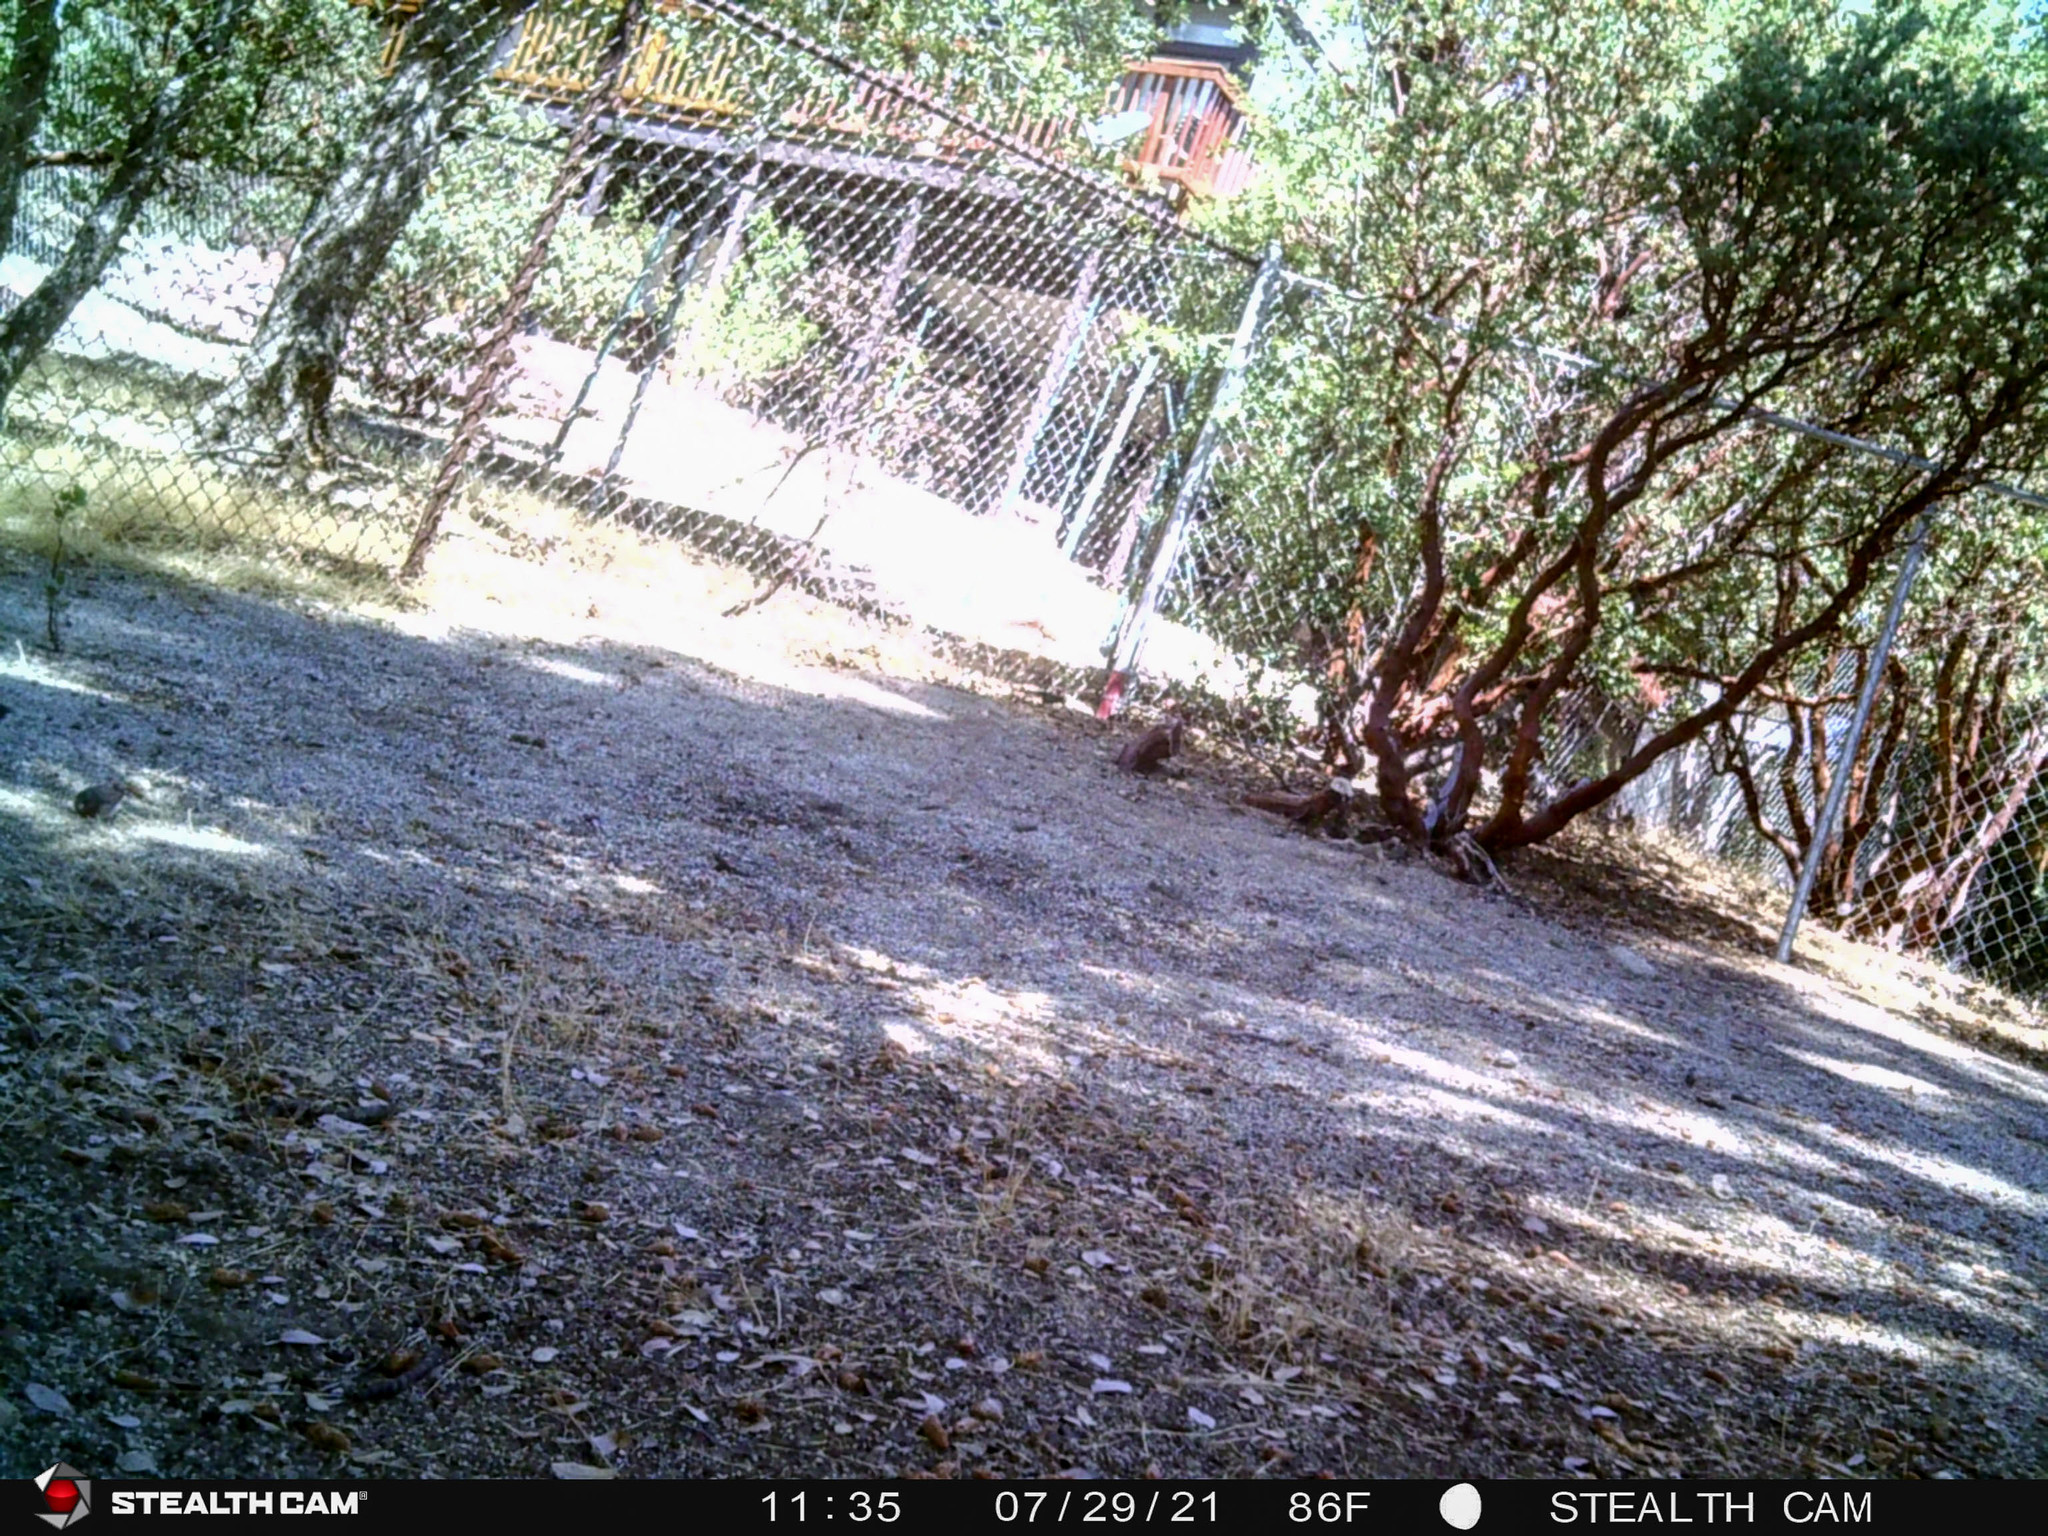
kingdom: Animalia
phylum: Chordata
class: Aves
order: Passeriformes
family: Passerellidae
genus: Junco
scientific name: Junco hyemalis
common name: Dark-eyed junco
